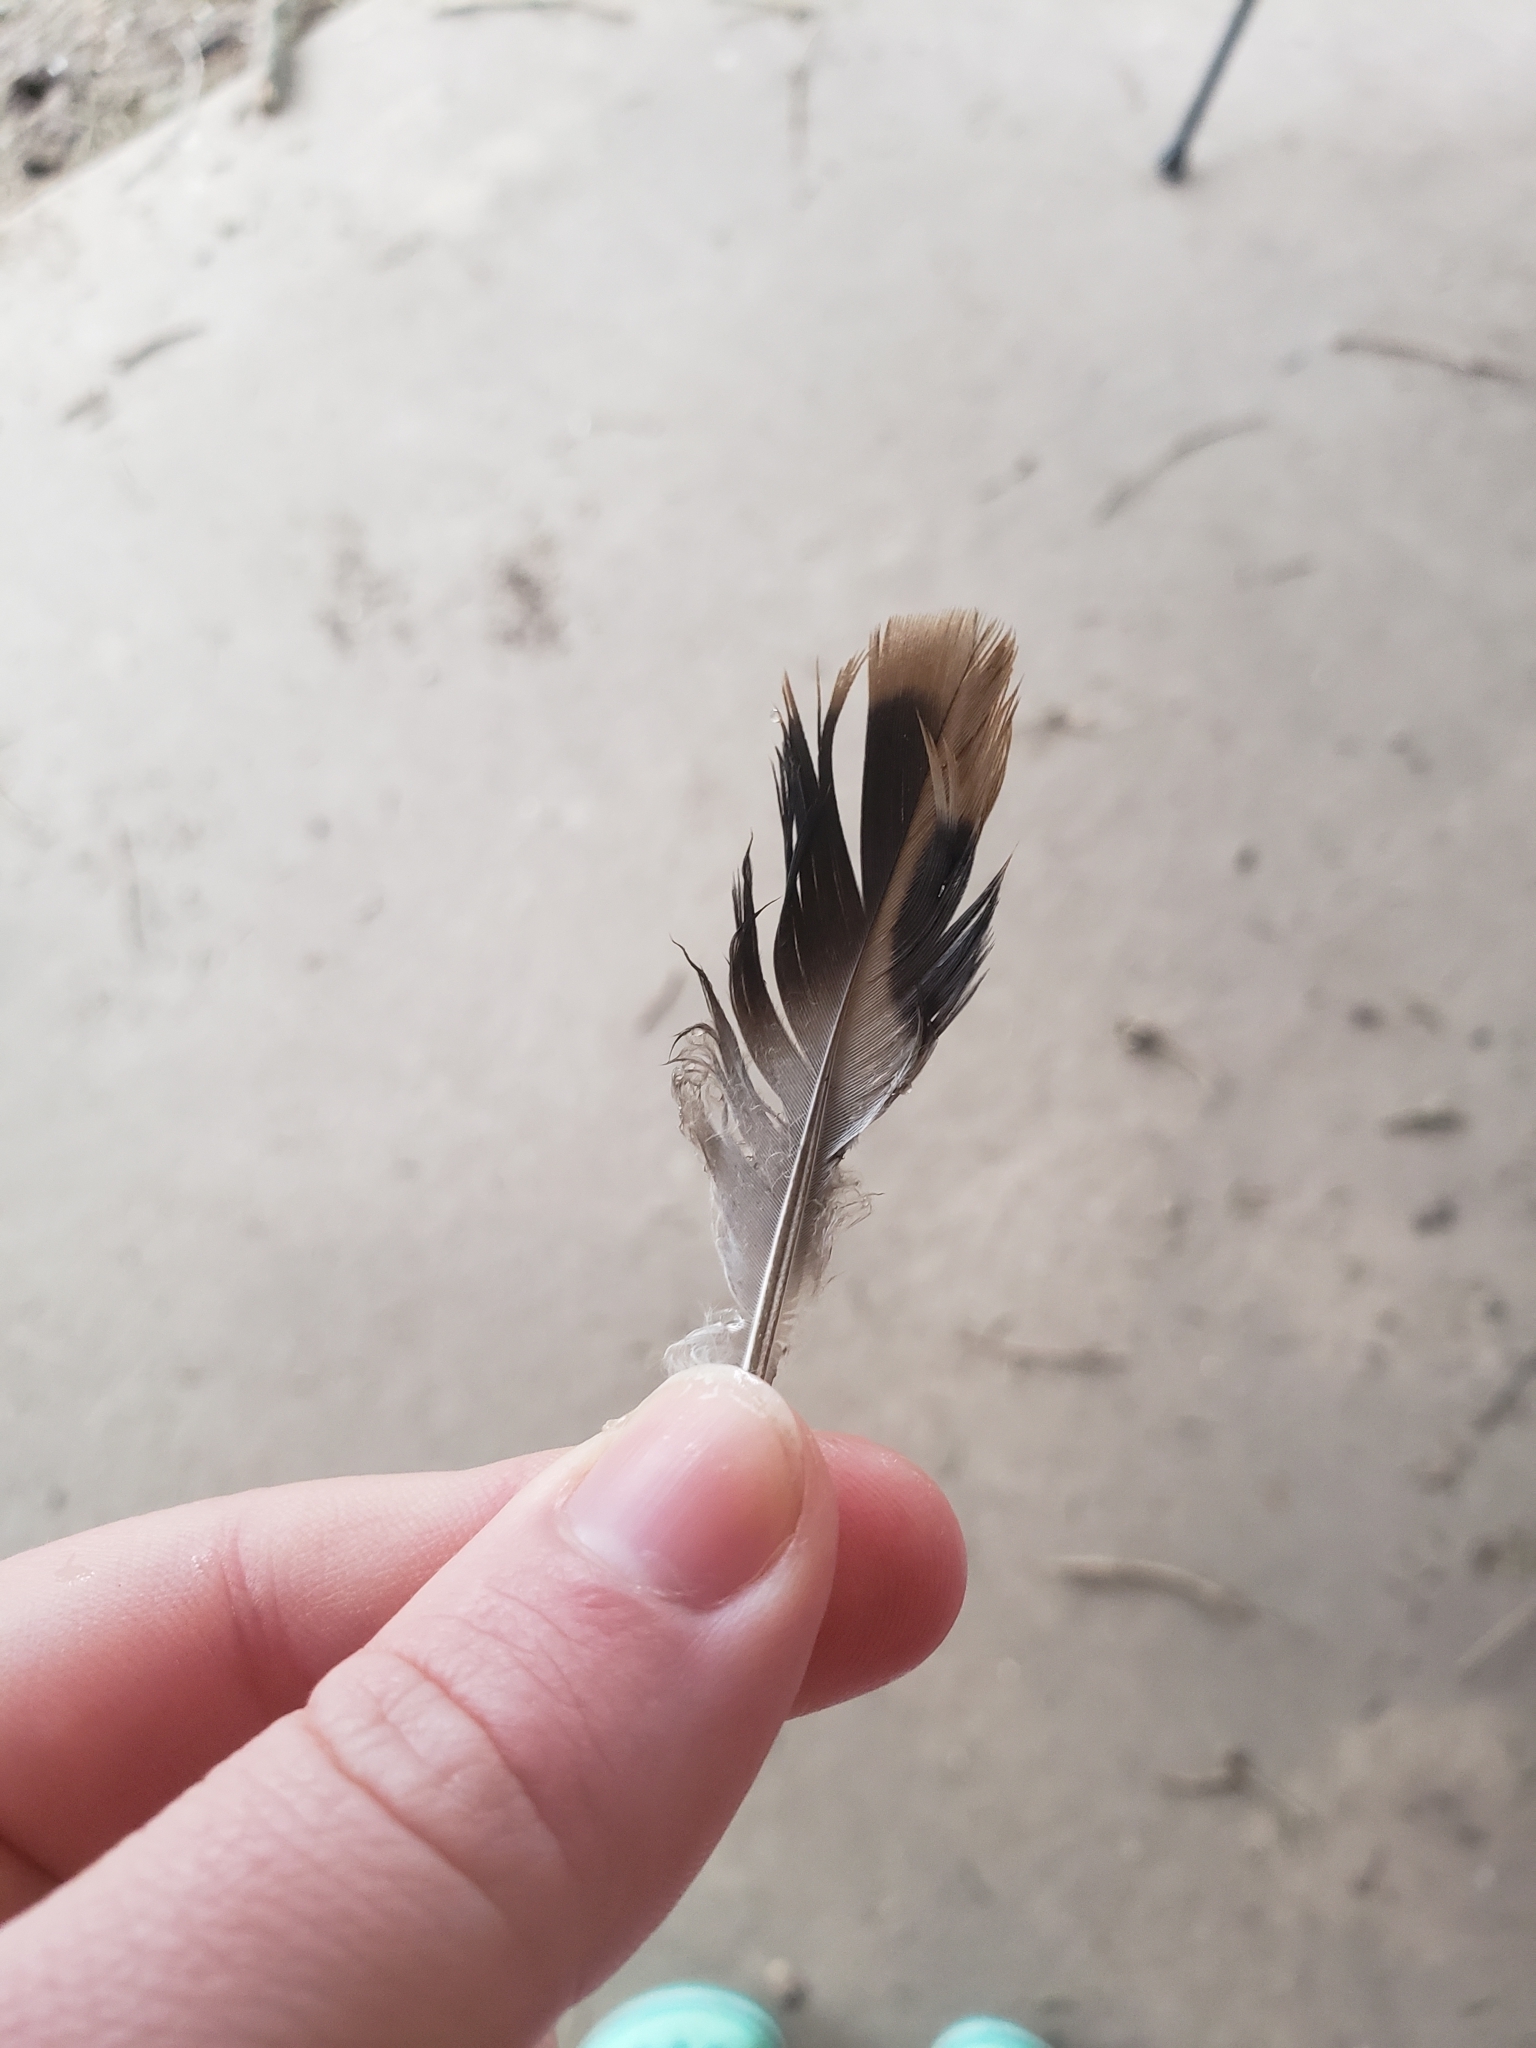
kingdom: Animalia
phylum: Chordata
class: Aves
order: Columbiformes
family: Columbidae
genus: Zenaida
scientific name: Zenaida macroura
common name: Mourning dove
